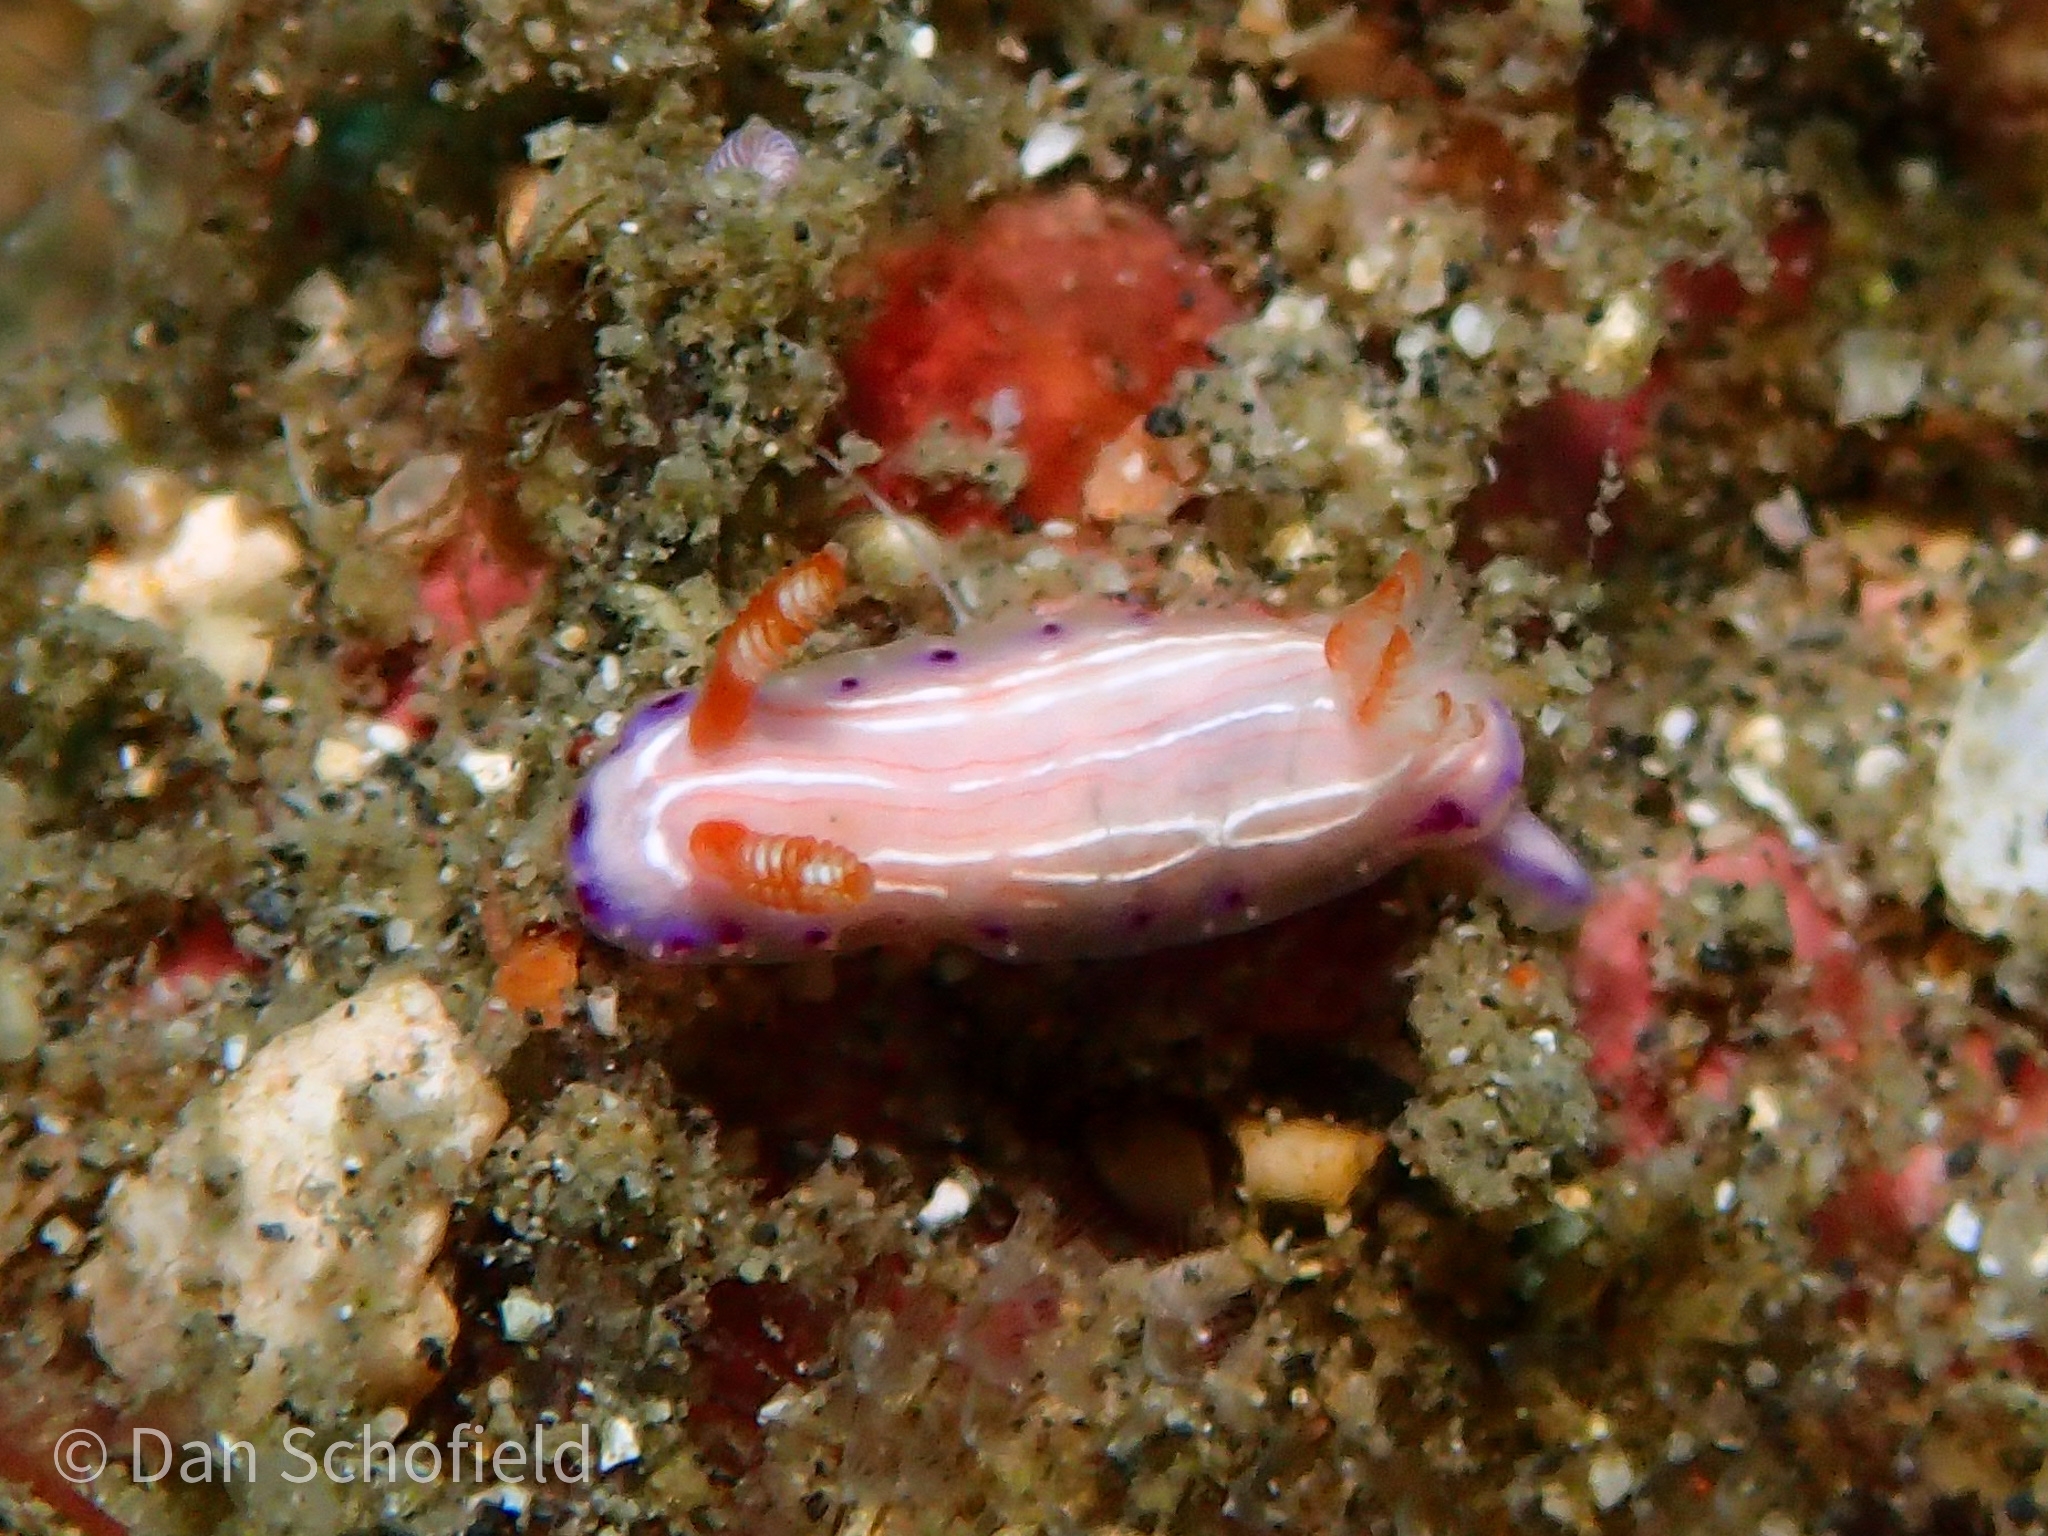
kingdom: Animalia
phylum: Mollusca
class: Gastropoda
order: Nudibranchia
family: Chromodorididae
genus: Hypselodoris
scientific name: Hypselodoris katherinae
